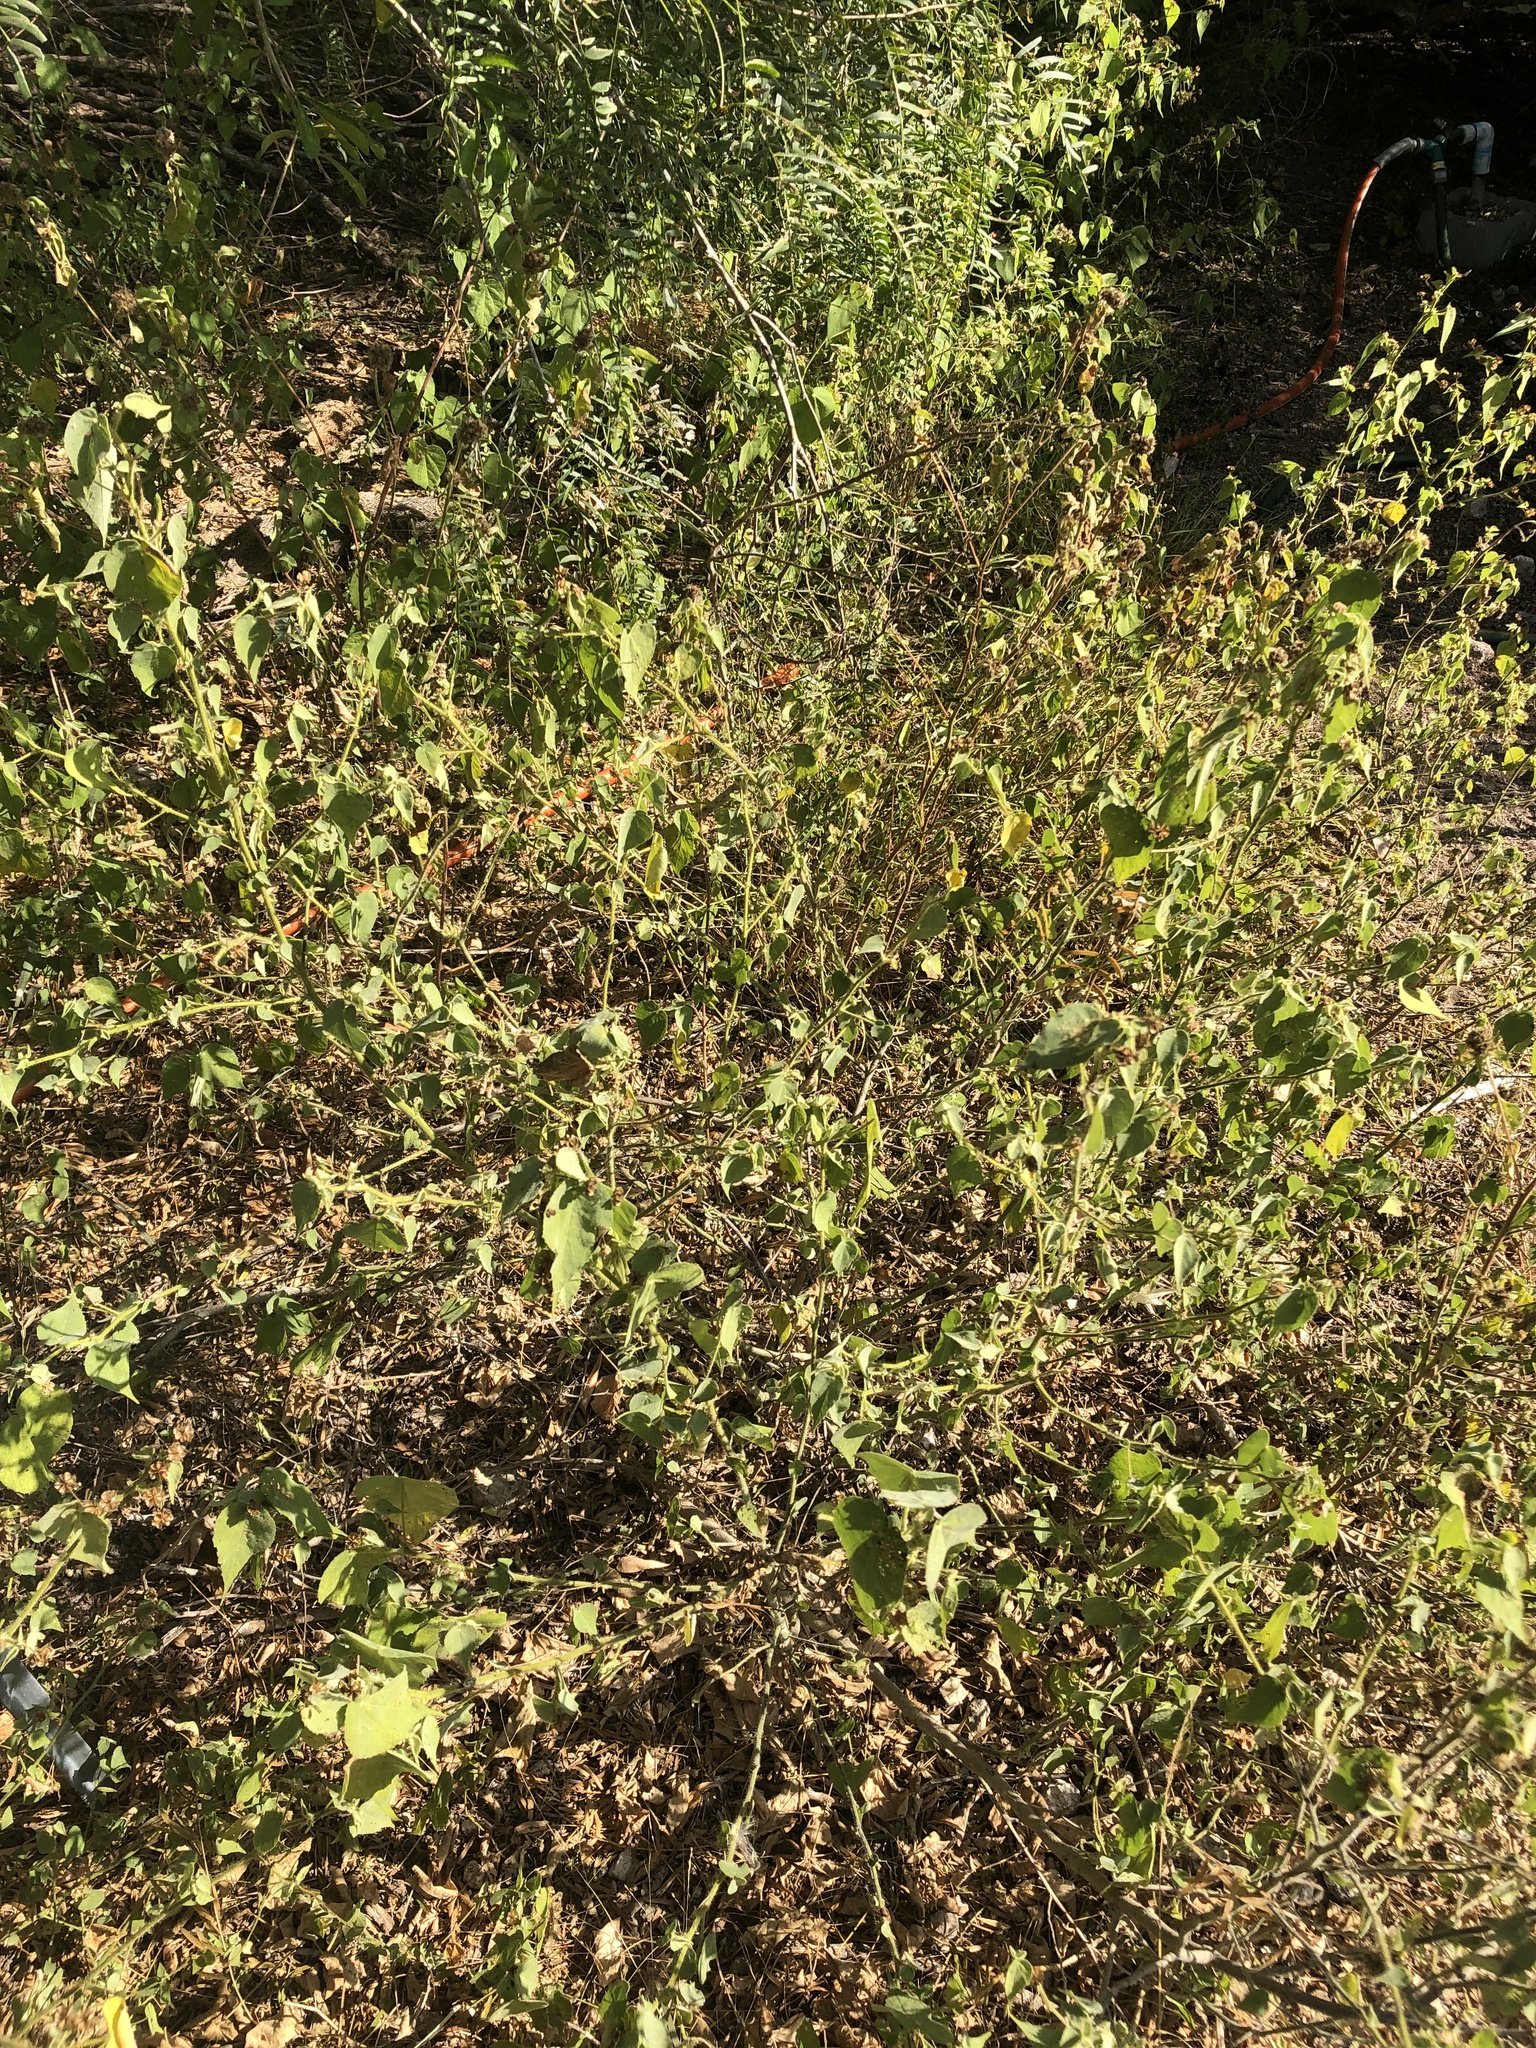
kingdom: Plantae
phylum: Tracheophyta
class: Magnoliopsida
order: Malvales
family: Malvaceae
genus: Abutilon
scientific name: Abutilon viscosum
